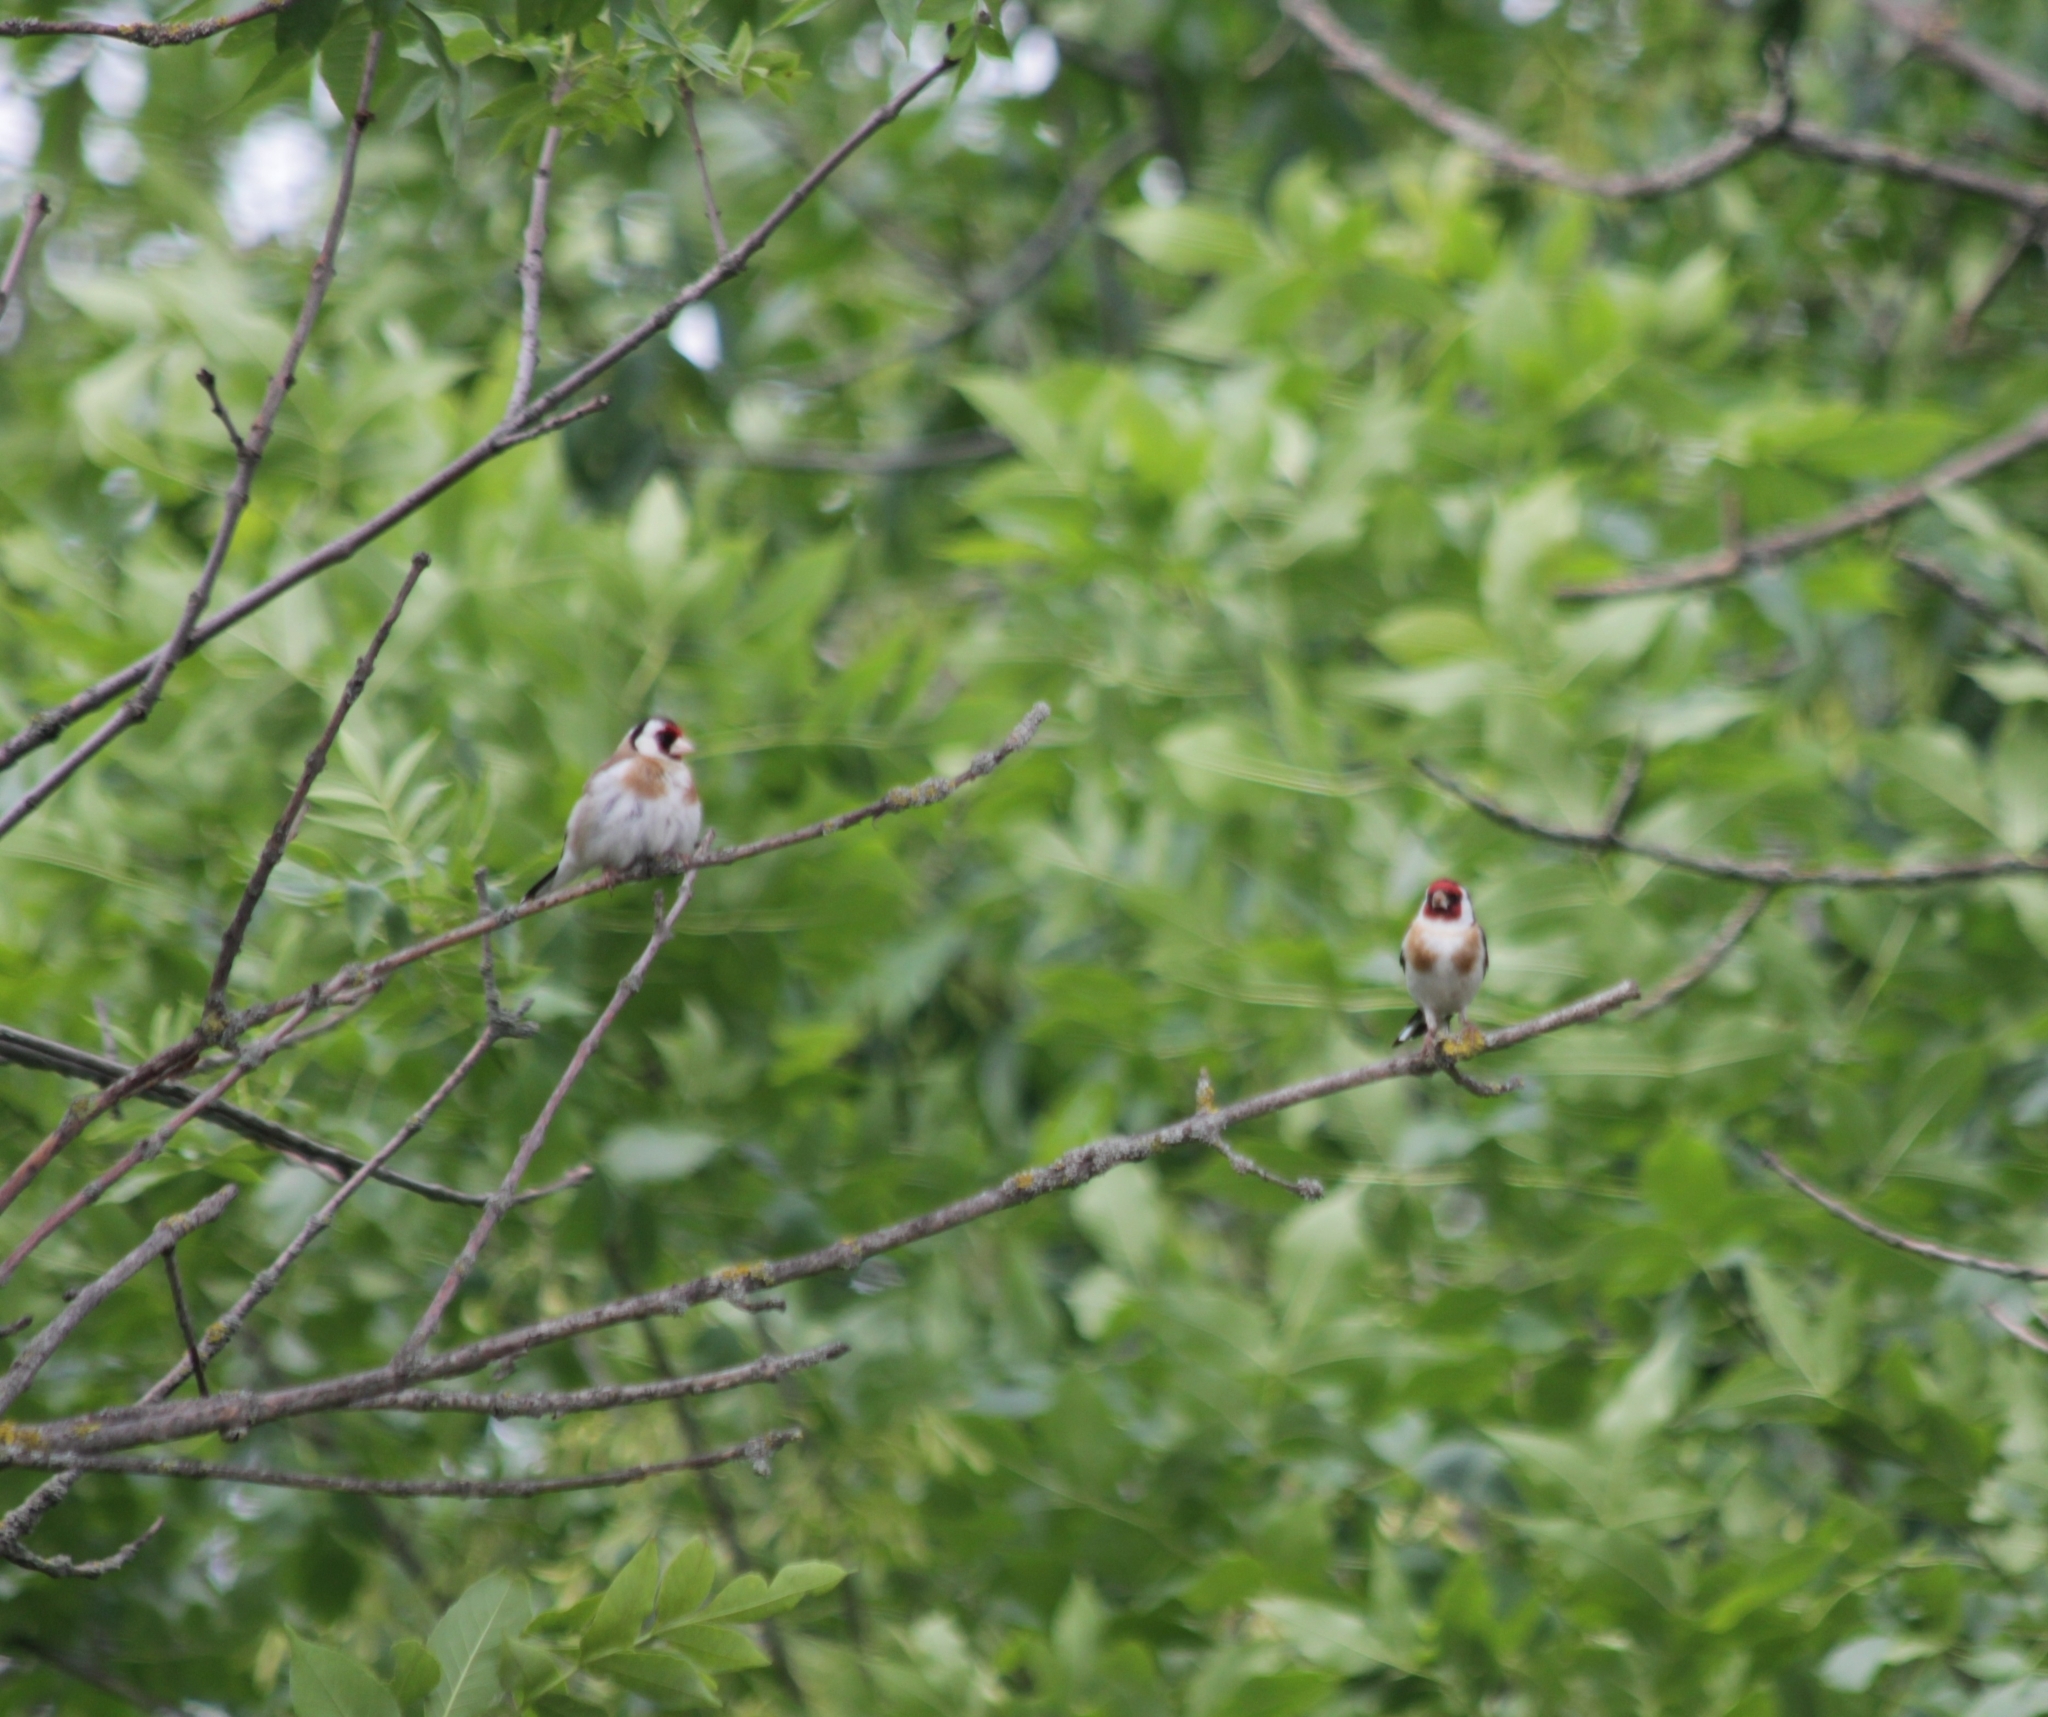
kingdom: Animalia
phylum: Chordata
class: Aves
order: Passeriformes
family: Fringillidae
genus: Carduelis
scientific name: Carduelis carduelis
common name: European goldfinch
